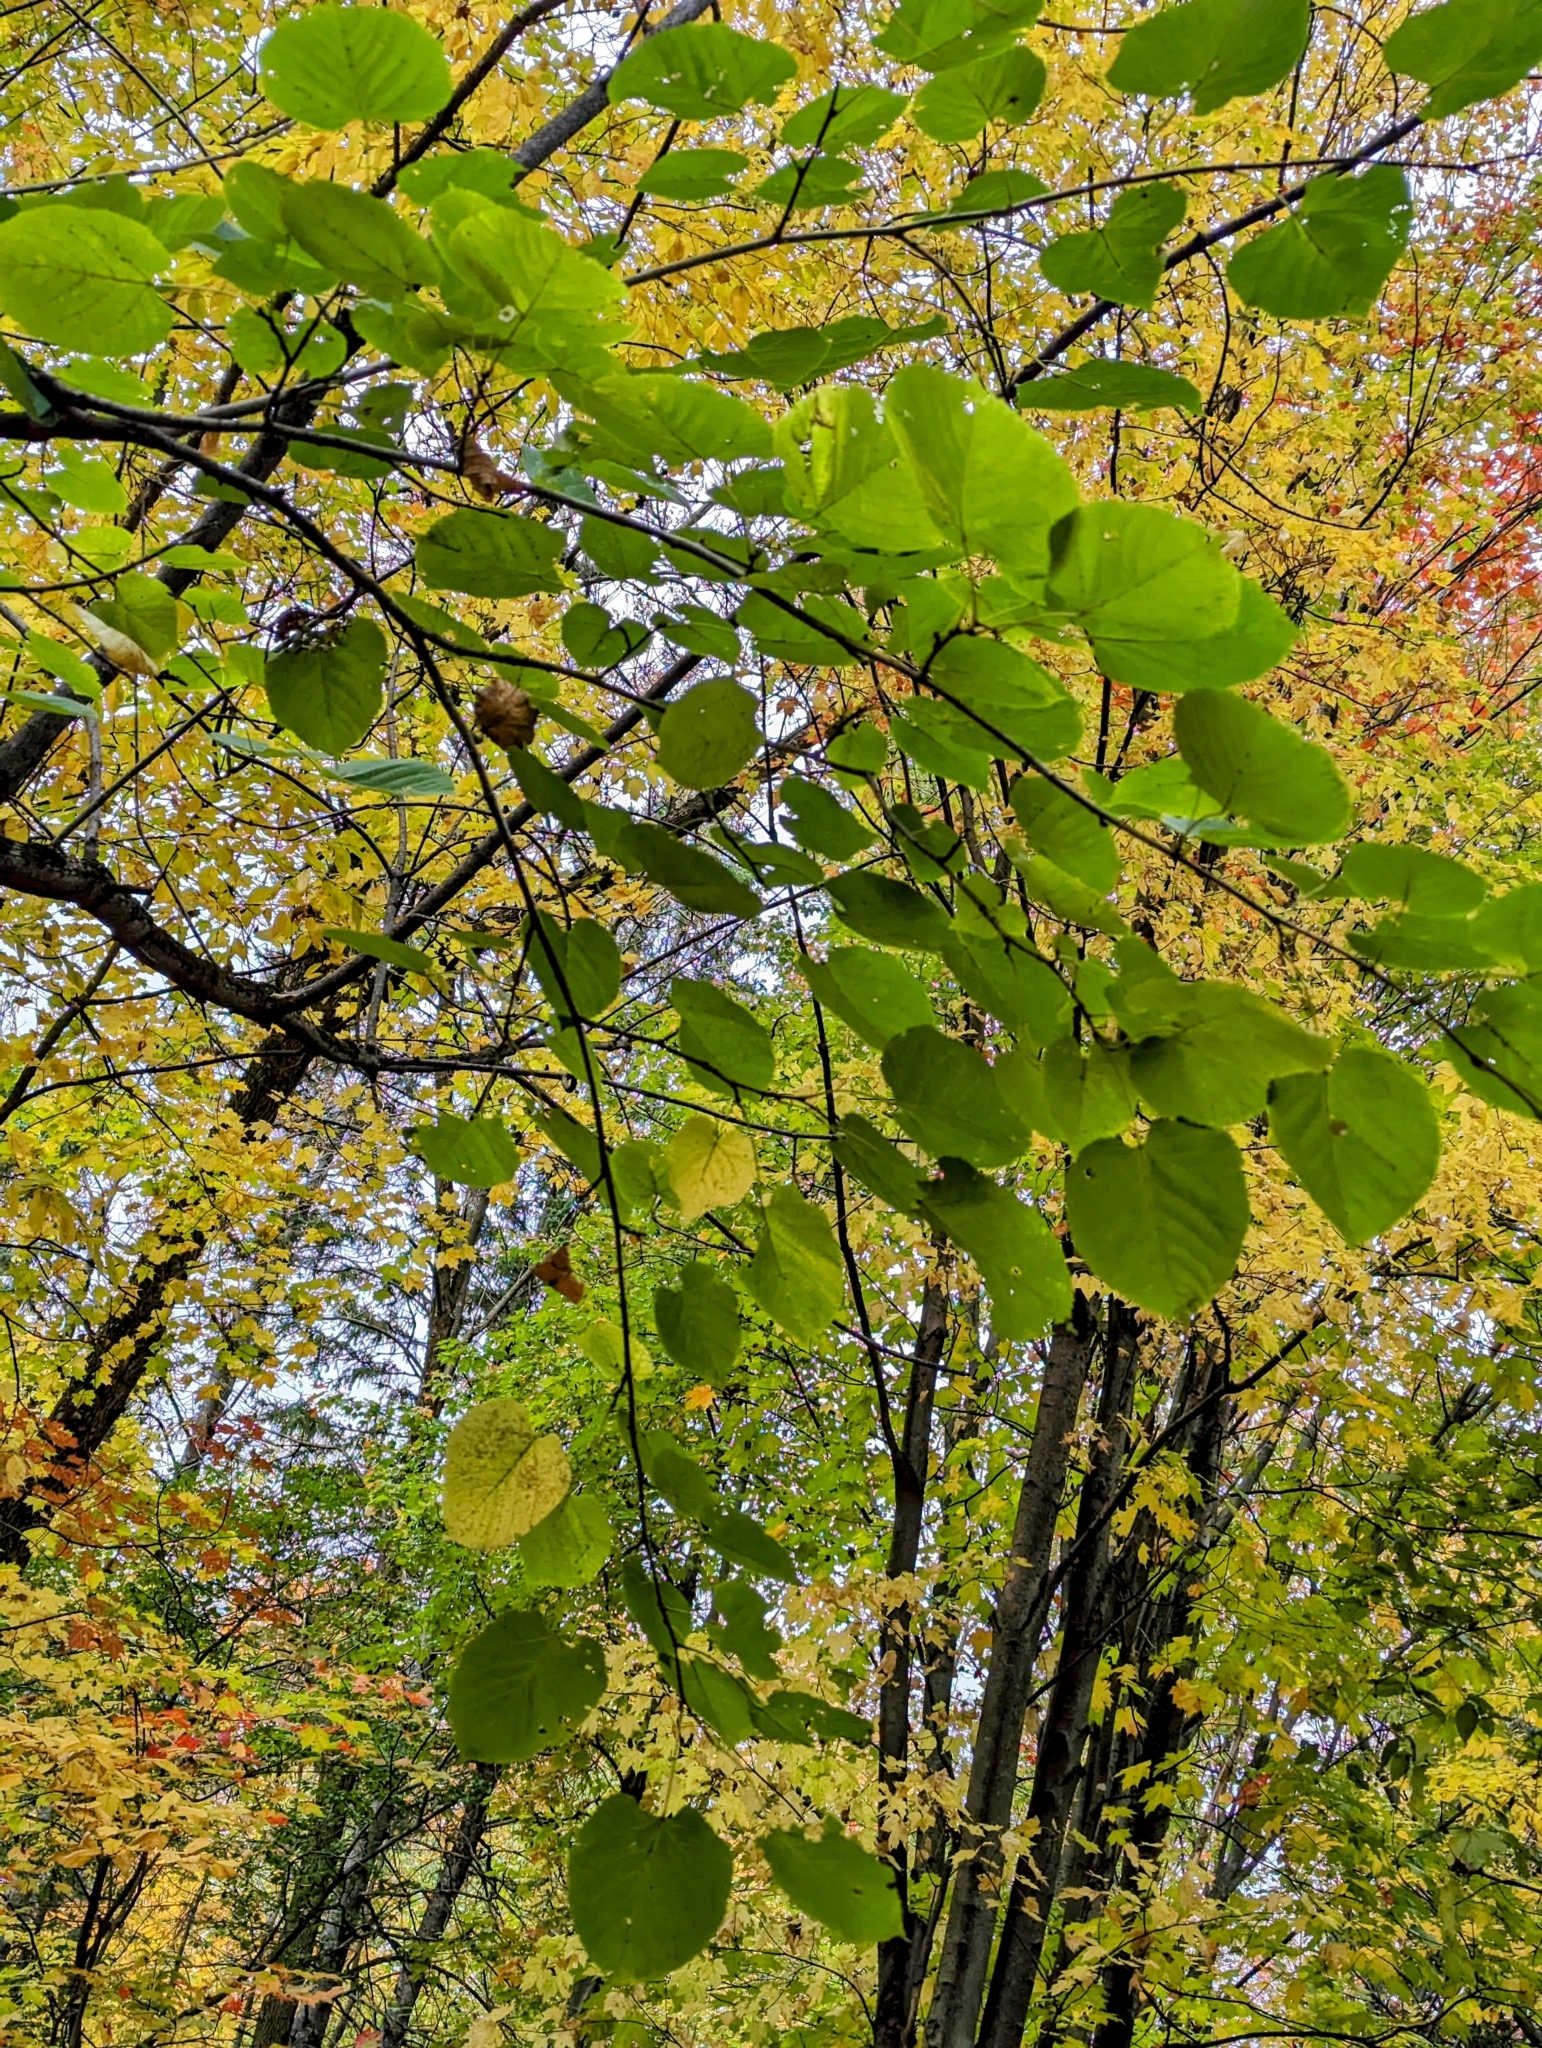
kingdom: Plantae
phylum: Tracheophyta
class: Magnoliopsida
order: Malvales
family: Malvaceae
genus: Tilia
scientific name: Tilia americana
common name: Basswood
